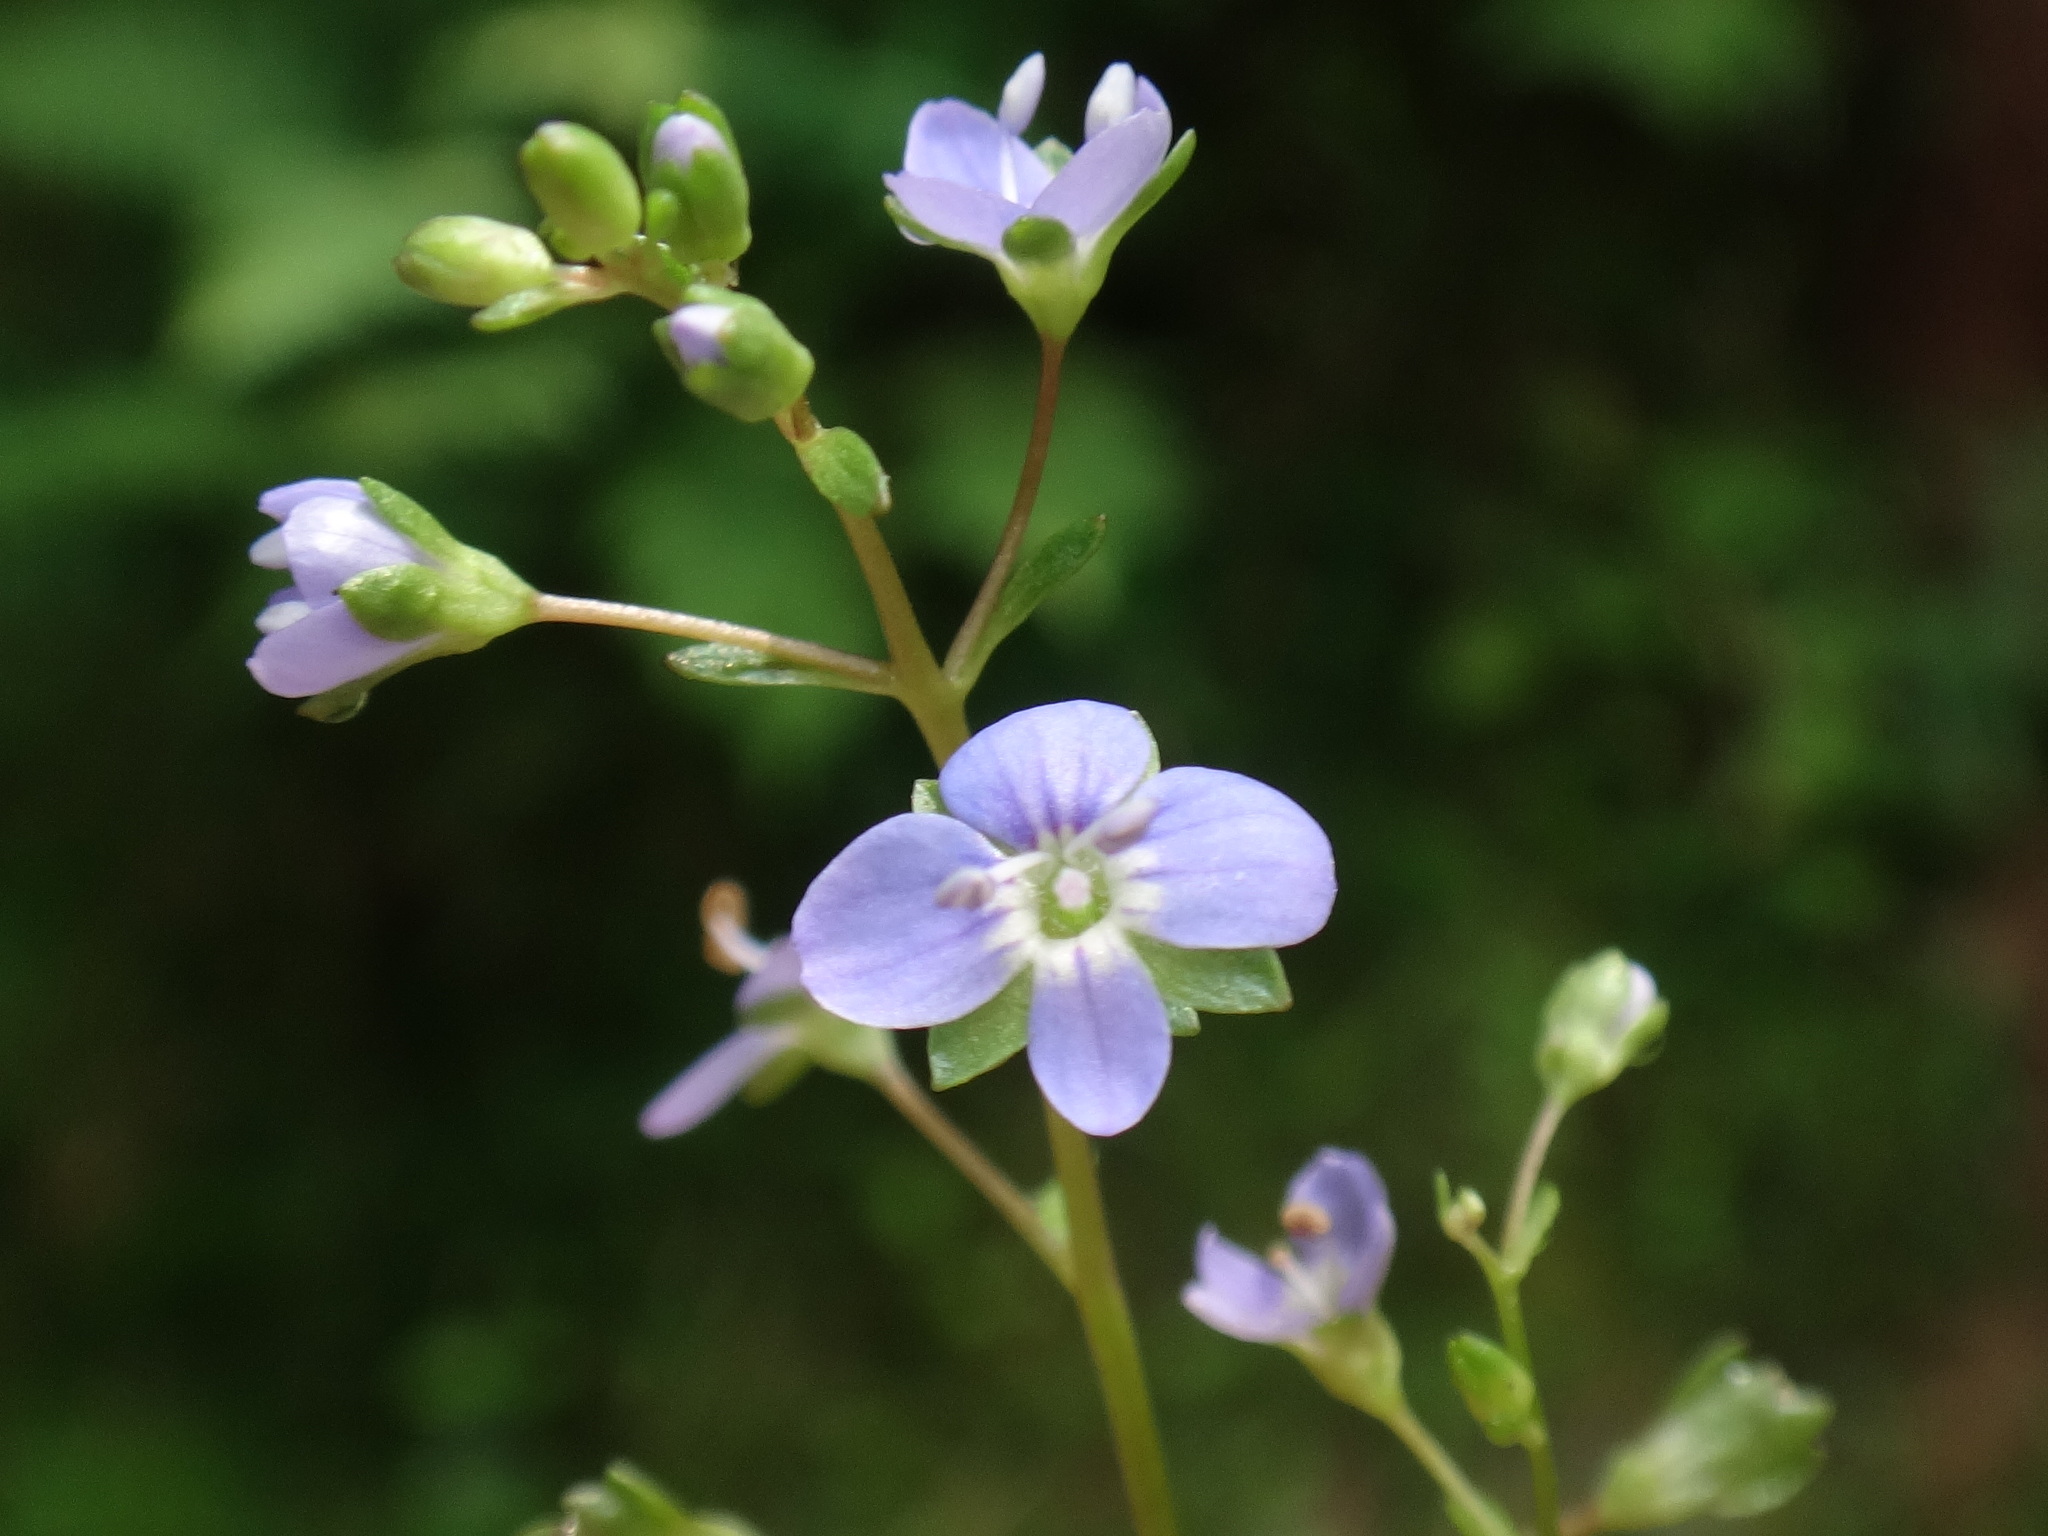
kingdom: Plantae
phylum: Tracheophyta
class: Magnoliopsida
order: Lamiales
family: Plantaginaceae
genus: Veronica
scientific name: Veronica beccabunga
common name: Brooklime
